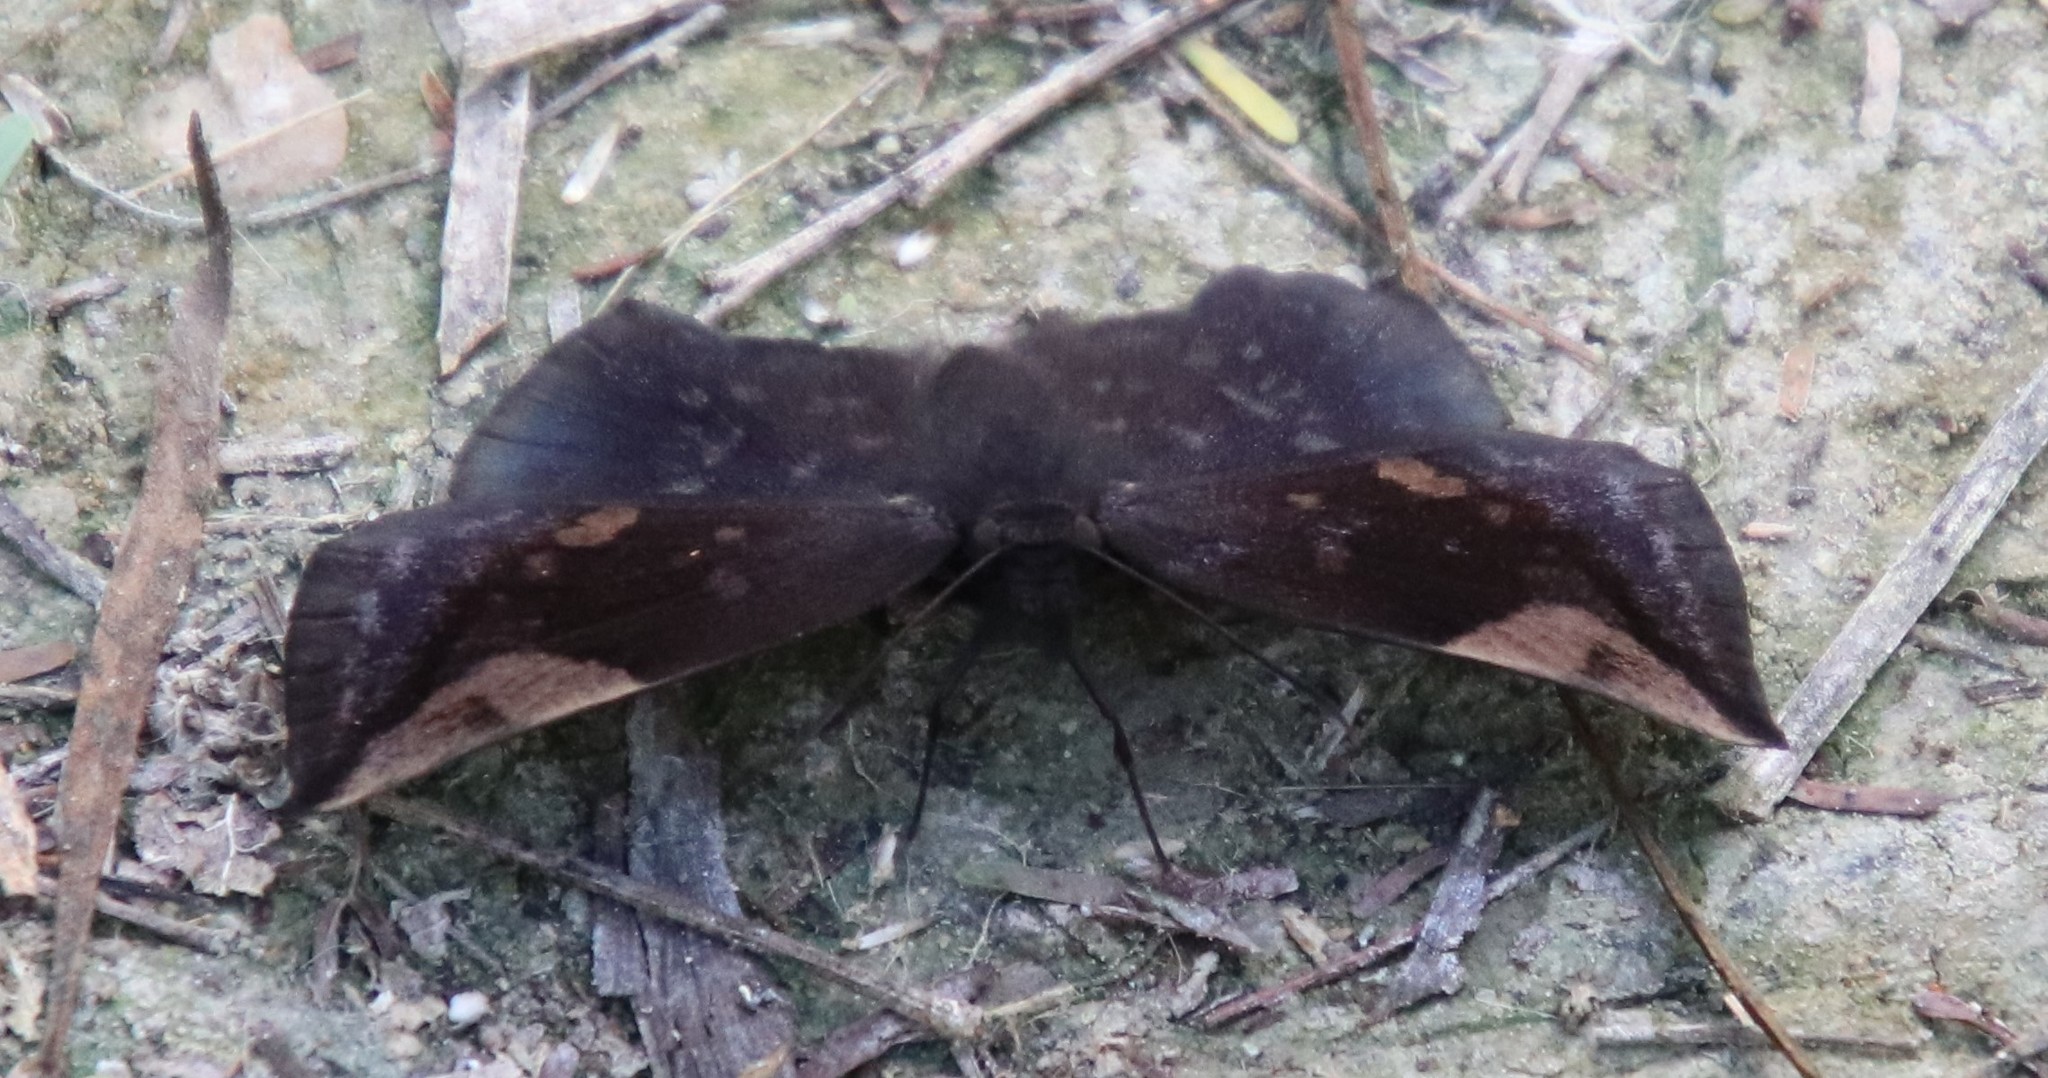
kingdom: Animalia
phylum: Arthropoda
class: Insecta
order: Lepidoptera
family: Hesperiidae
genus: Achlyodes
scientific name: Achlyodes thraso
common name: Sickle-winged skipper
